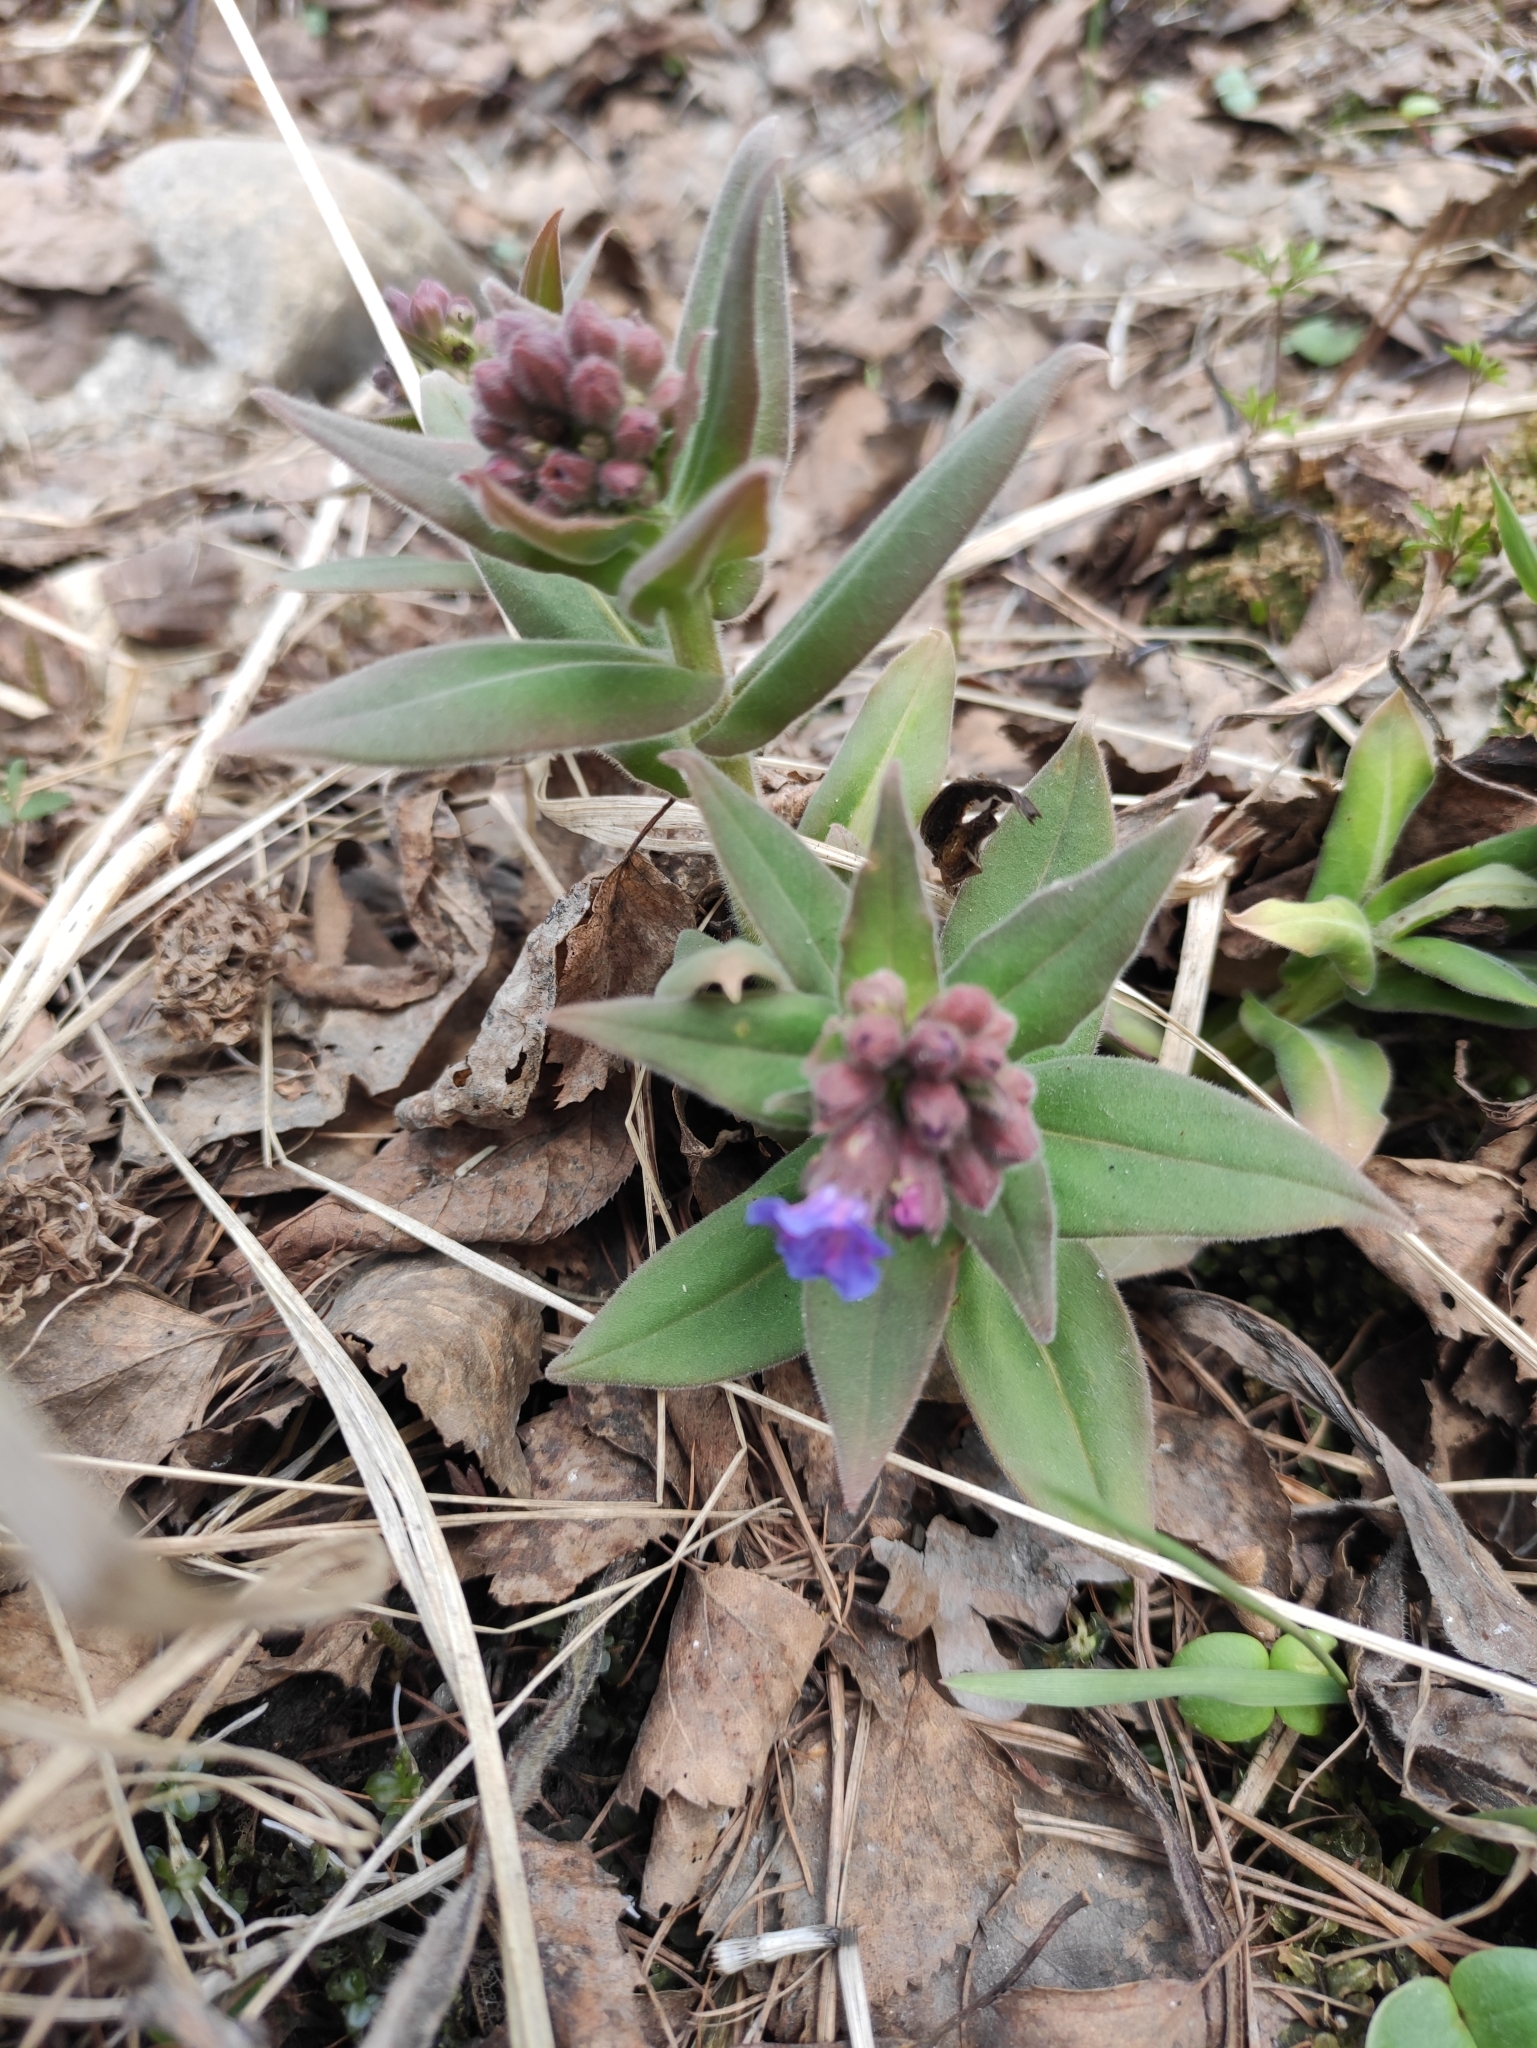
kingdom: Plantae
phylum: Tracheophyta
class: Magnoliopsida
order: Boraginales
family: Boraginaceae
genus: Pulmonaria
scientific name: Pulmonaria mollis
